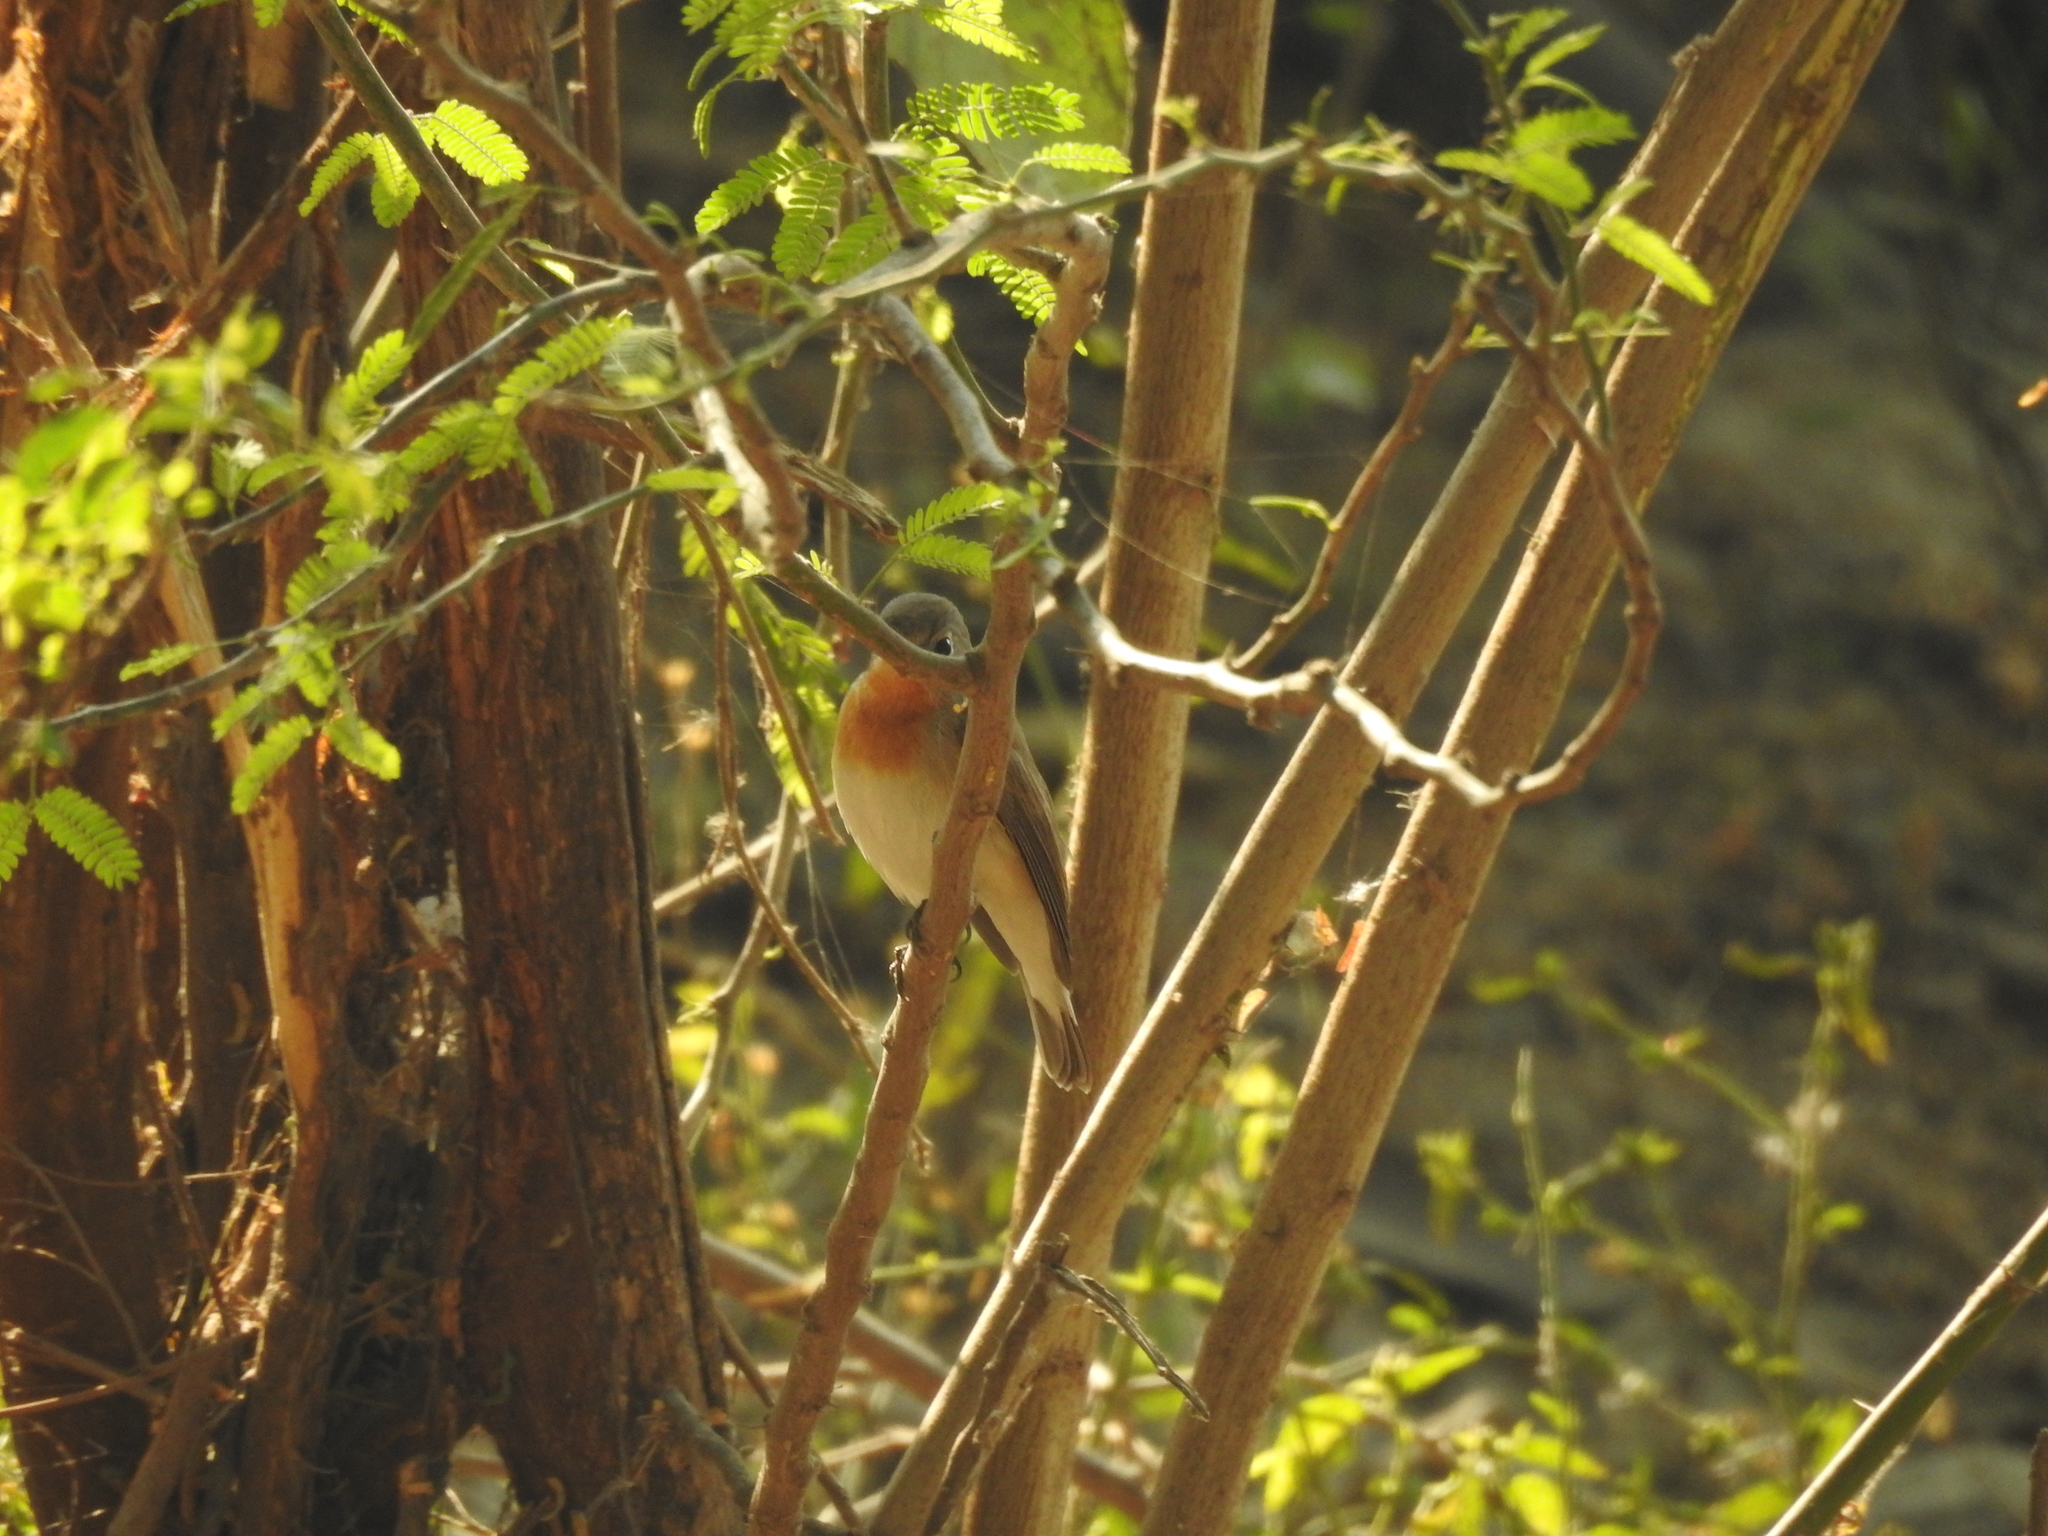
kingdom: Animalia
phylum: Chordata
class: Aves
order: Passeriformes
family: Muscicapidae
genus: Ficedula
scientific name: Ficedula parva
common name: Red-breasted flycatcher
